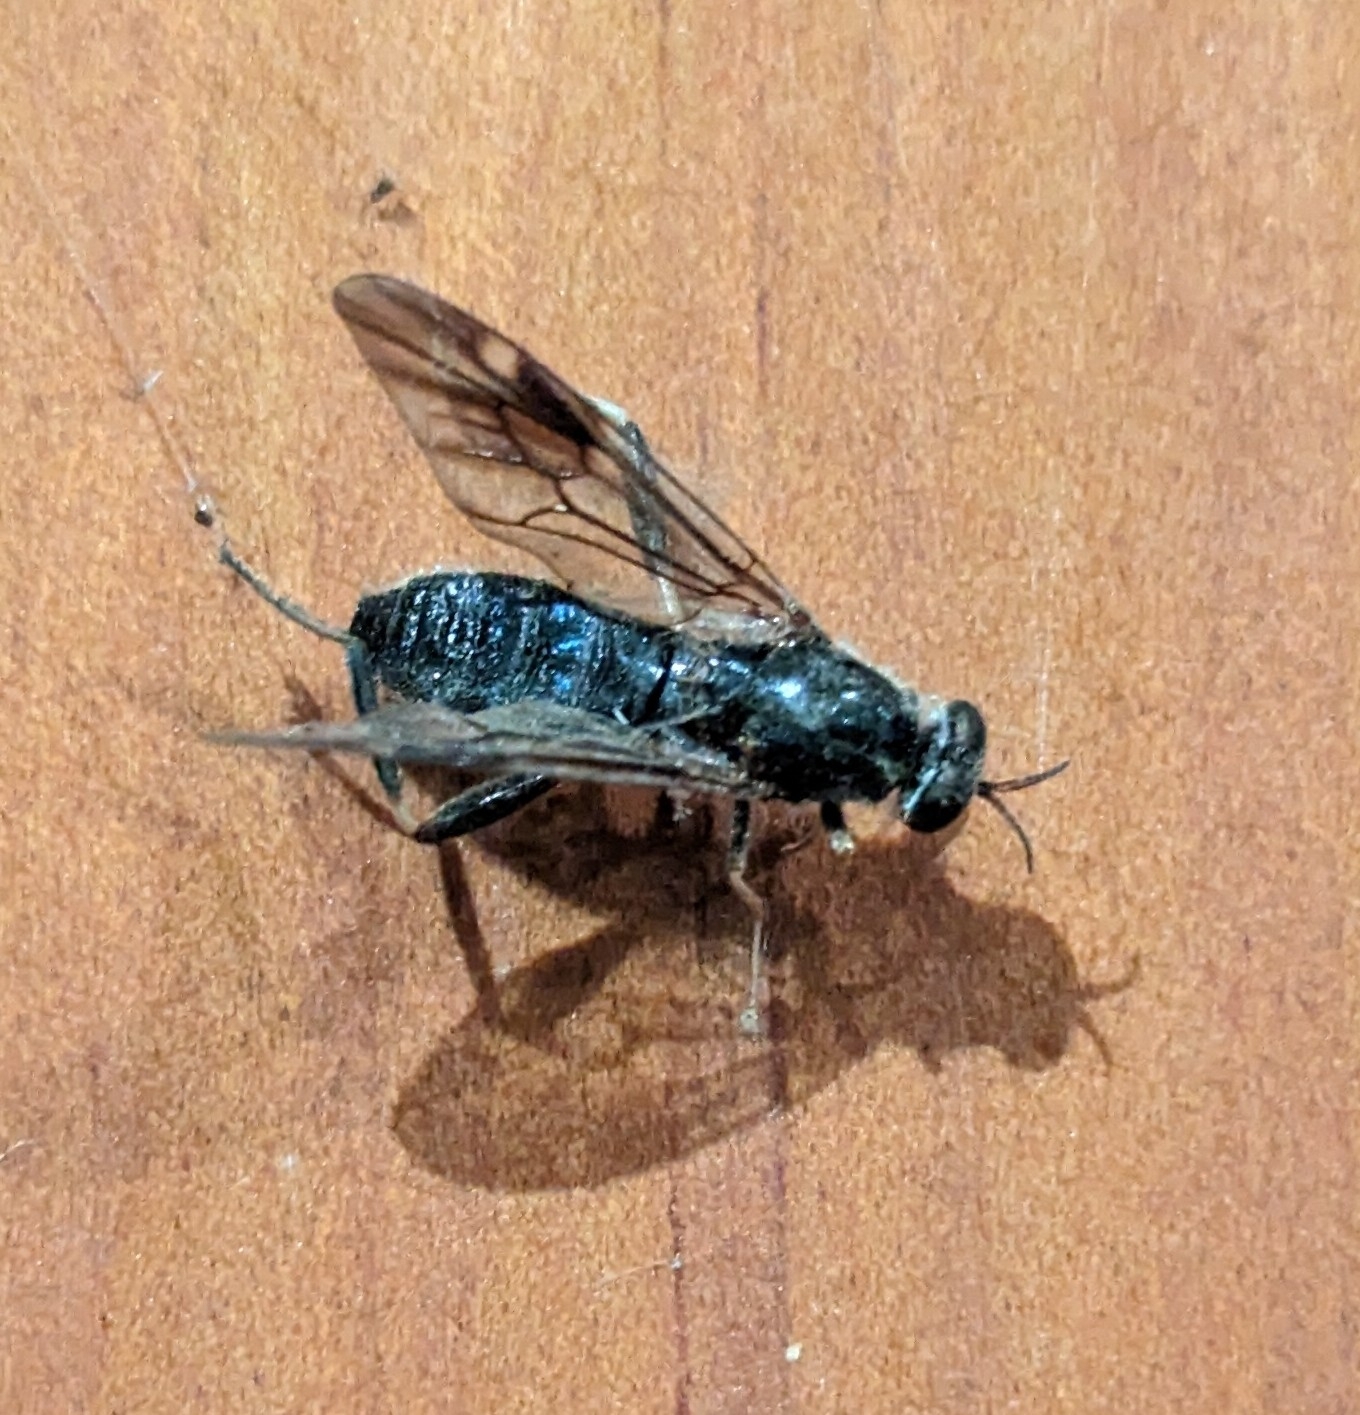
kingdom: Animalia
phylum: Arthropoda
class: Insecta
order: Diptera
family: Stratiomyidae
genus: Exaireta
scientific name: Exaireta spinigera
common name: Blue soldier fly
